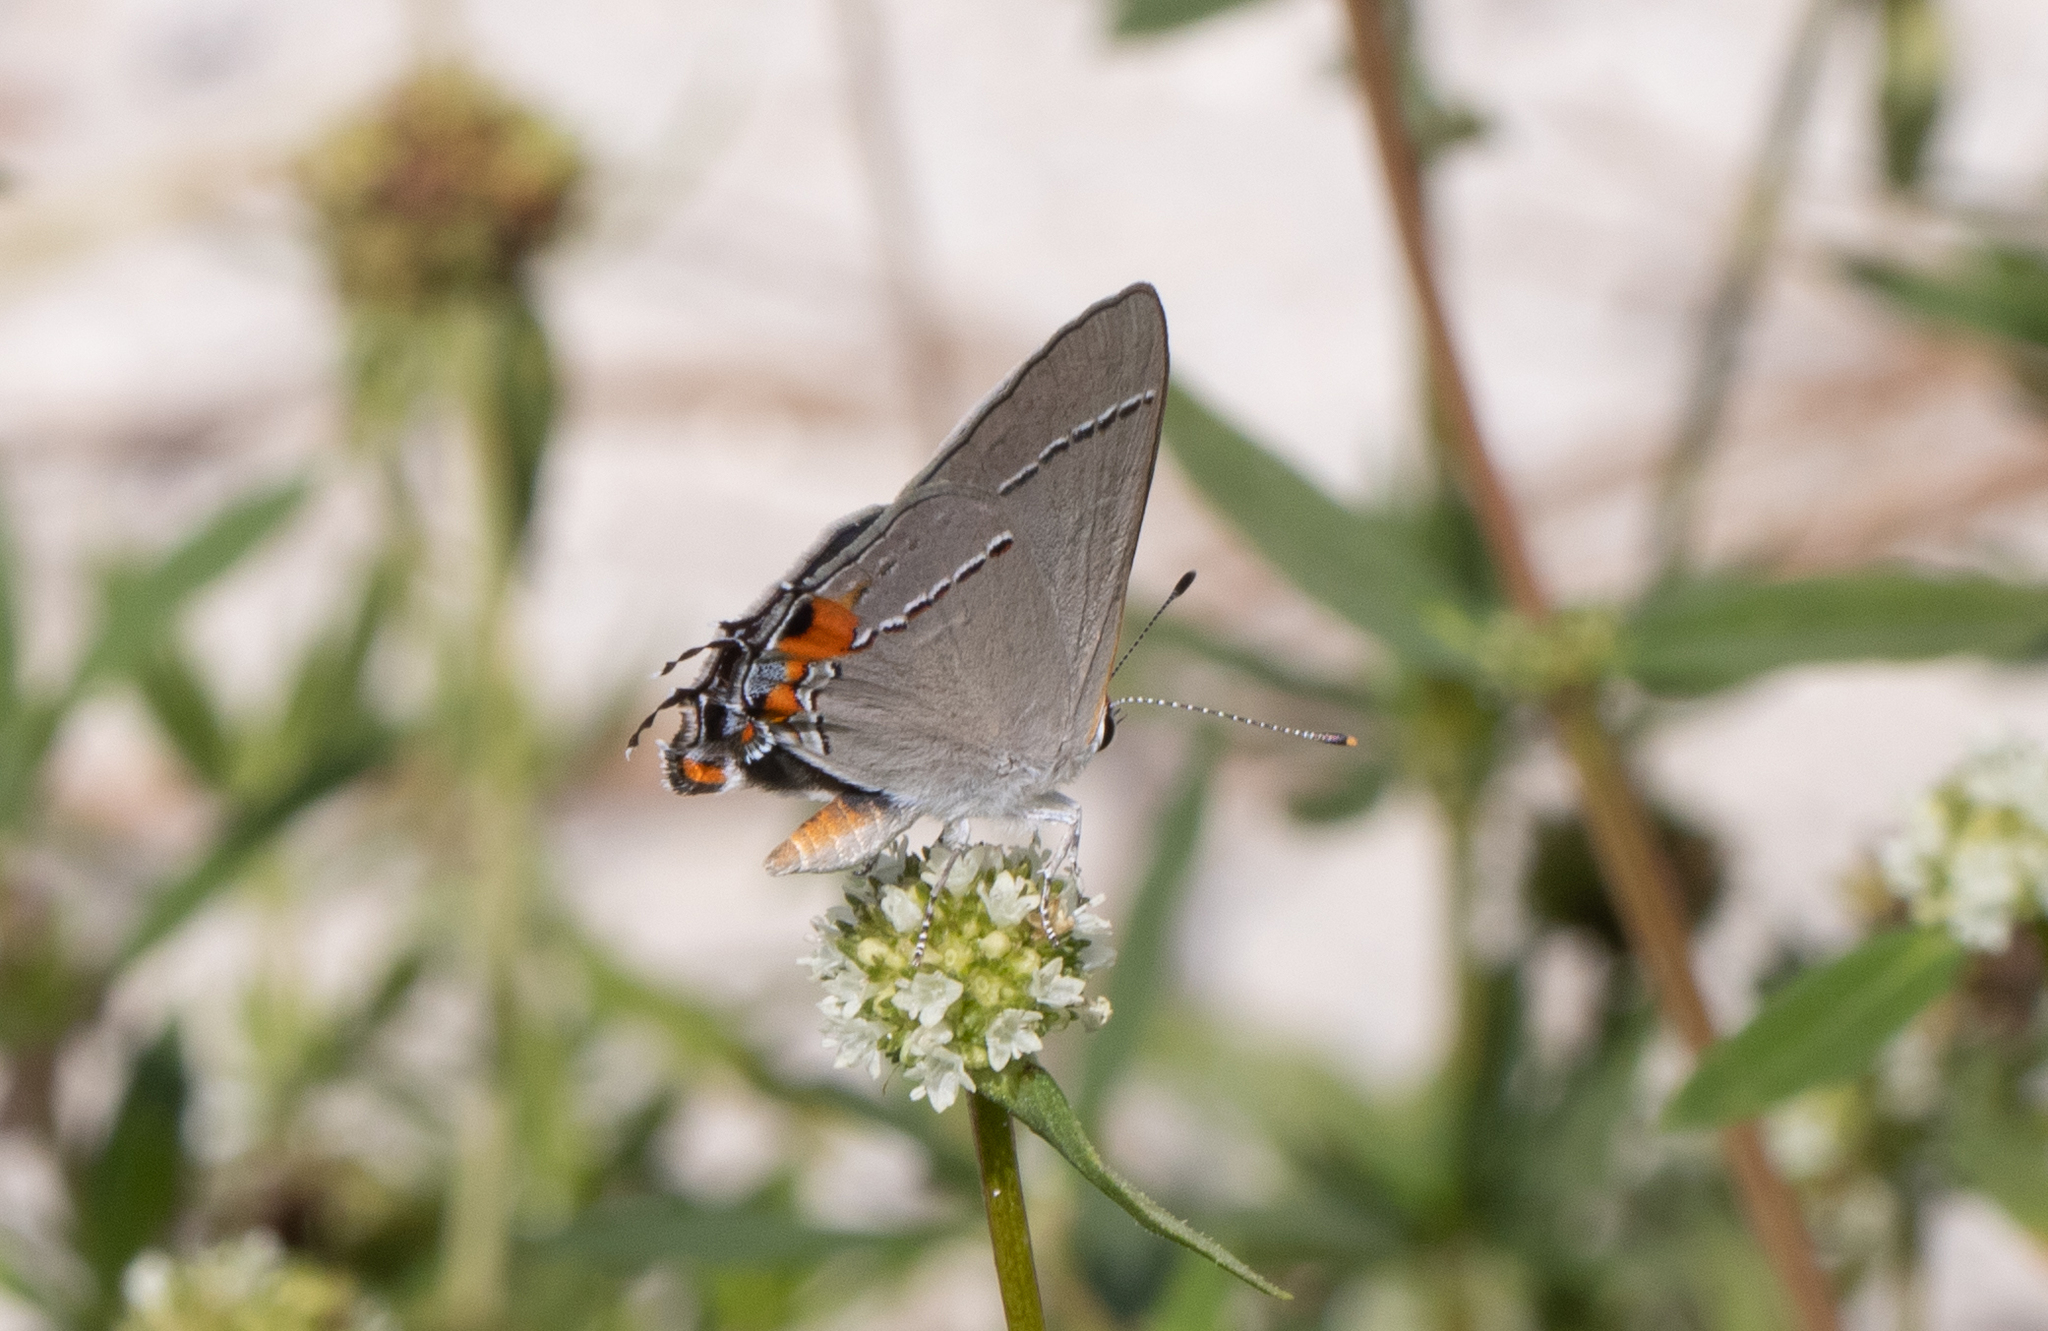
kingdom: Animalia
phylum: Arthropoda
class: Insecta
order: Lepidoptera
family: Lycaenidae
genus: Strymon
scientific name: Strymon melinus
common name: Gray hairstreak
